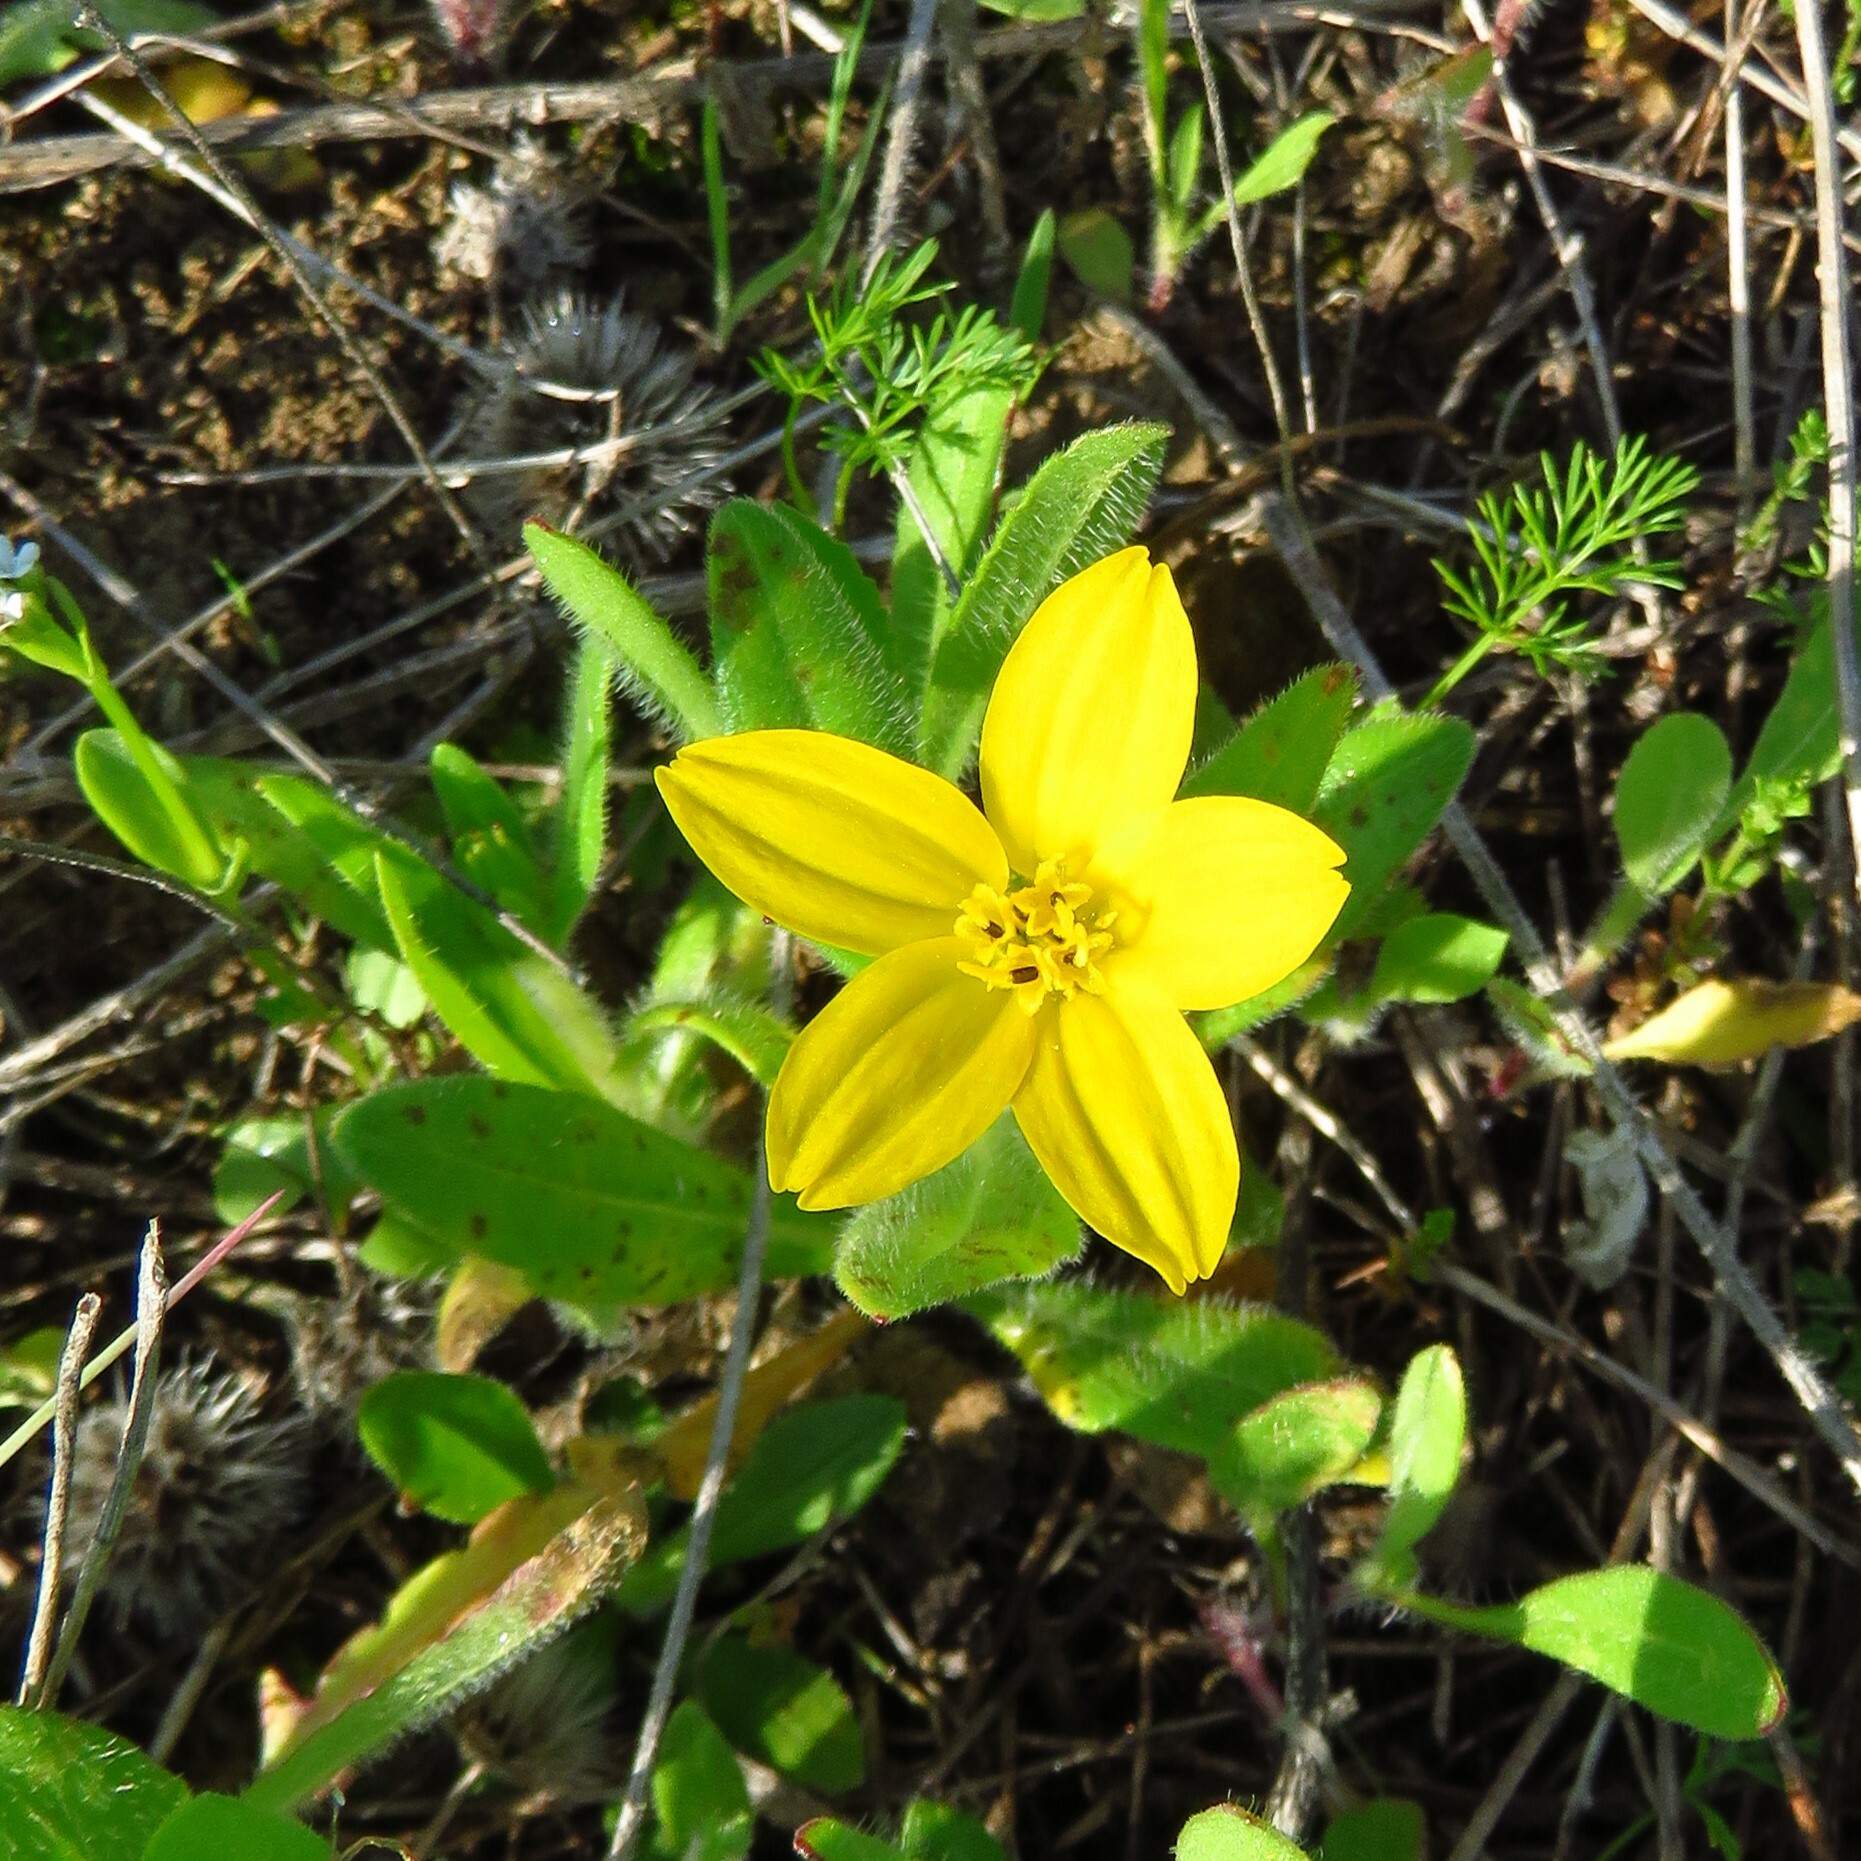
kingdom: Plantae
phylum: Tracheophyta
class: Magnoliopsida
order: Asterales
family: Asteraceae
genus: Lindheimera
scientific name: Lindheimera texana
